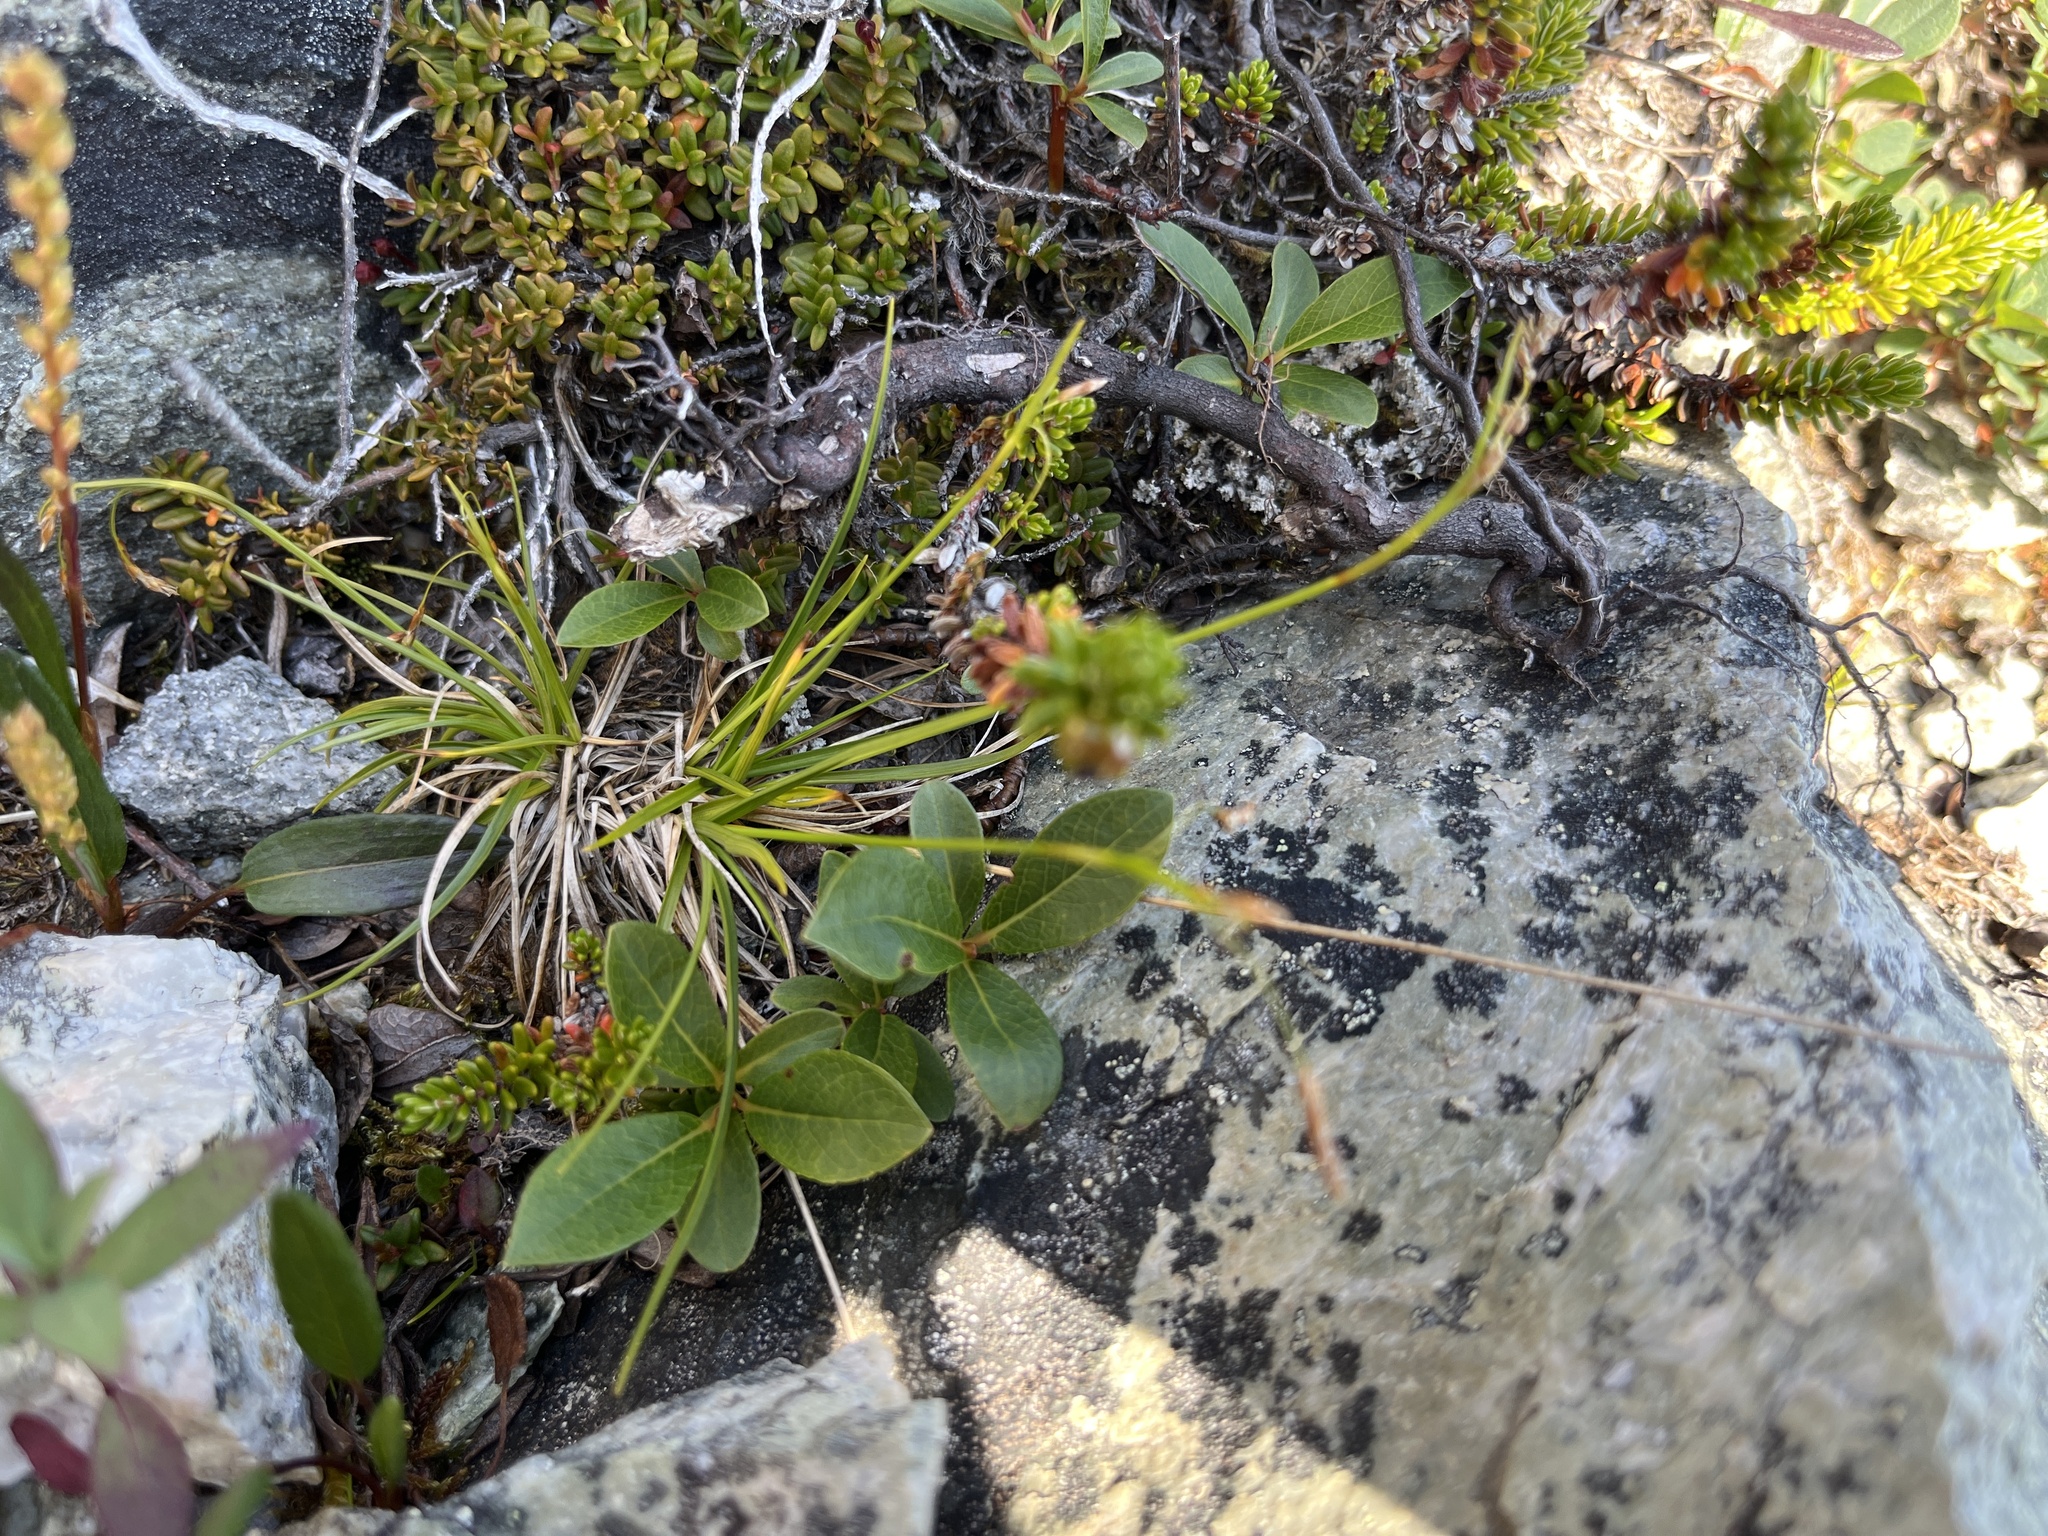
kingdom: Plantae
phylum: Tracheophyta
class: Liliopsida
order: Poales
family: Cyperaceae
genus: Carex
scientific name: Carex capillaris
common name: Hair sedge
